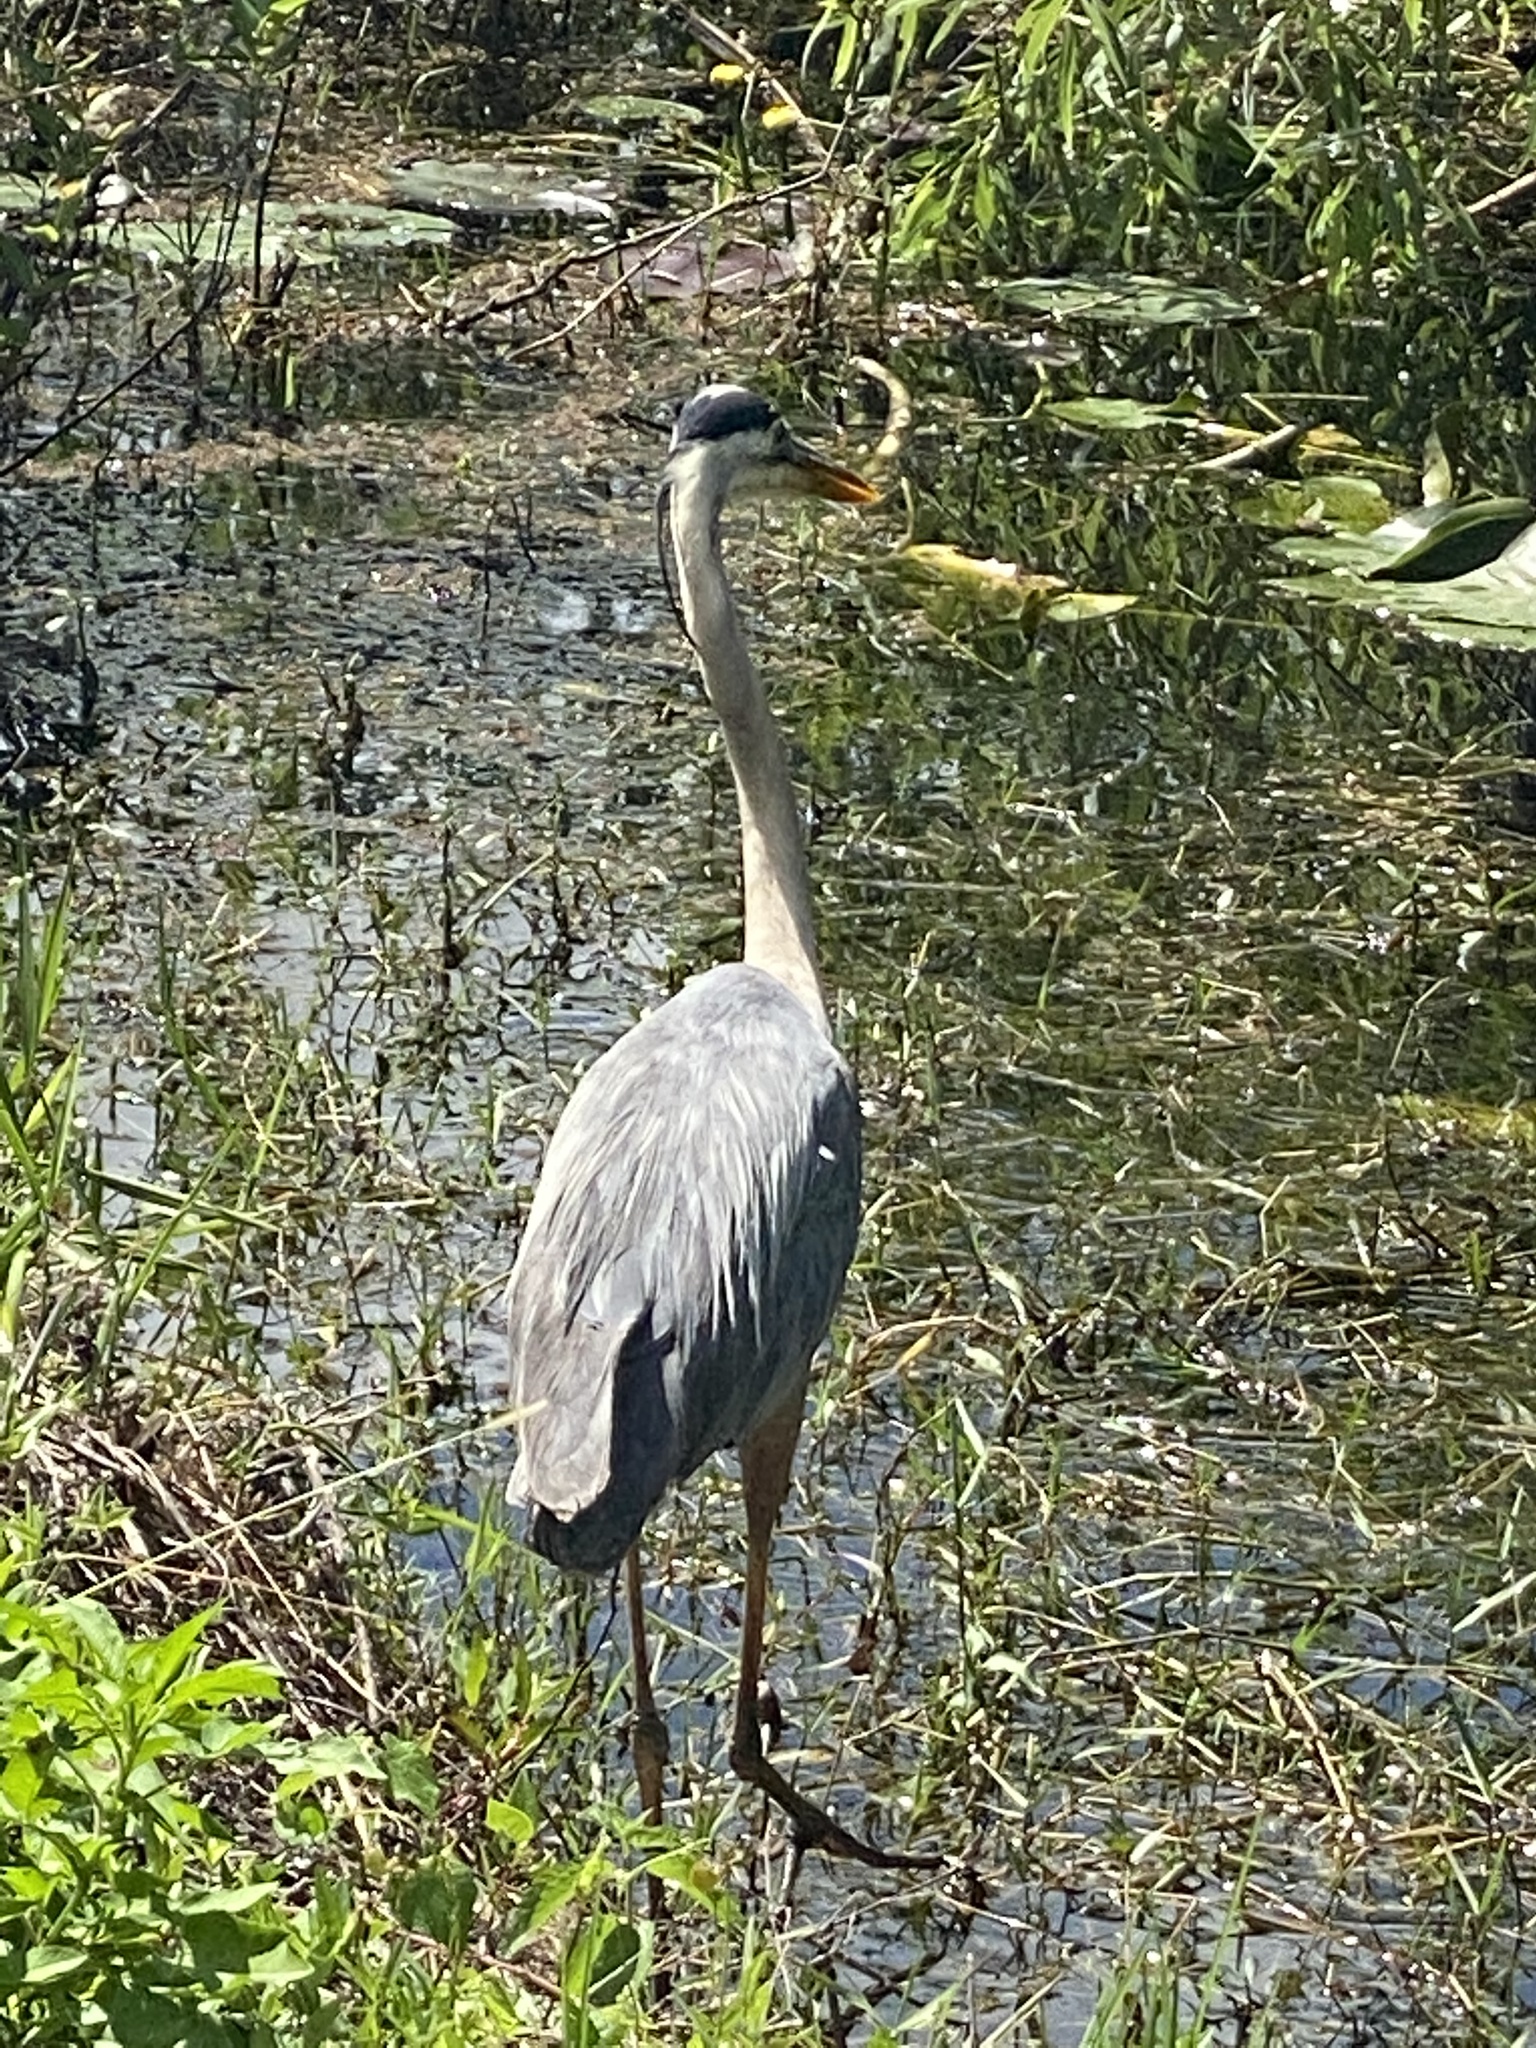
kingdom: Animalia
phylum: Chordata
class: Aves
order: Pelecaniformes
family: Ardeidae
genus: Ardea
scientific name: Ardea herodias
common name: Great blue heron
